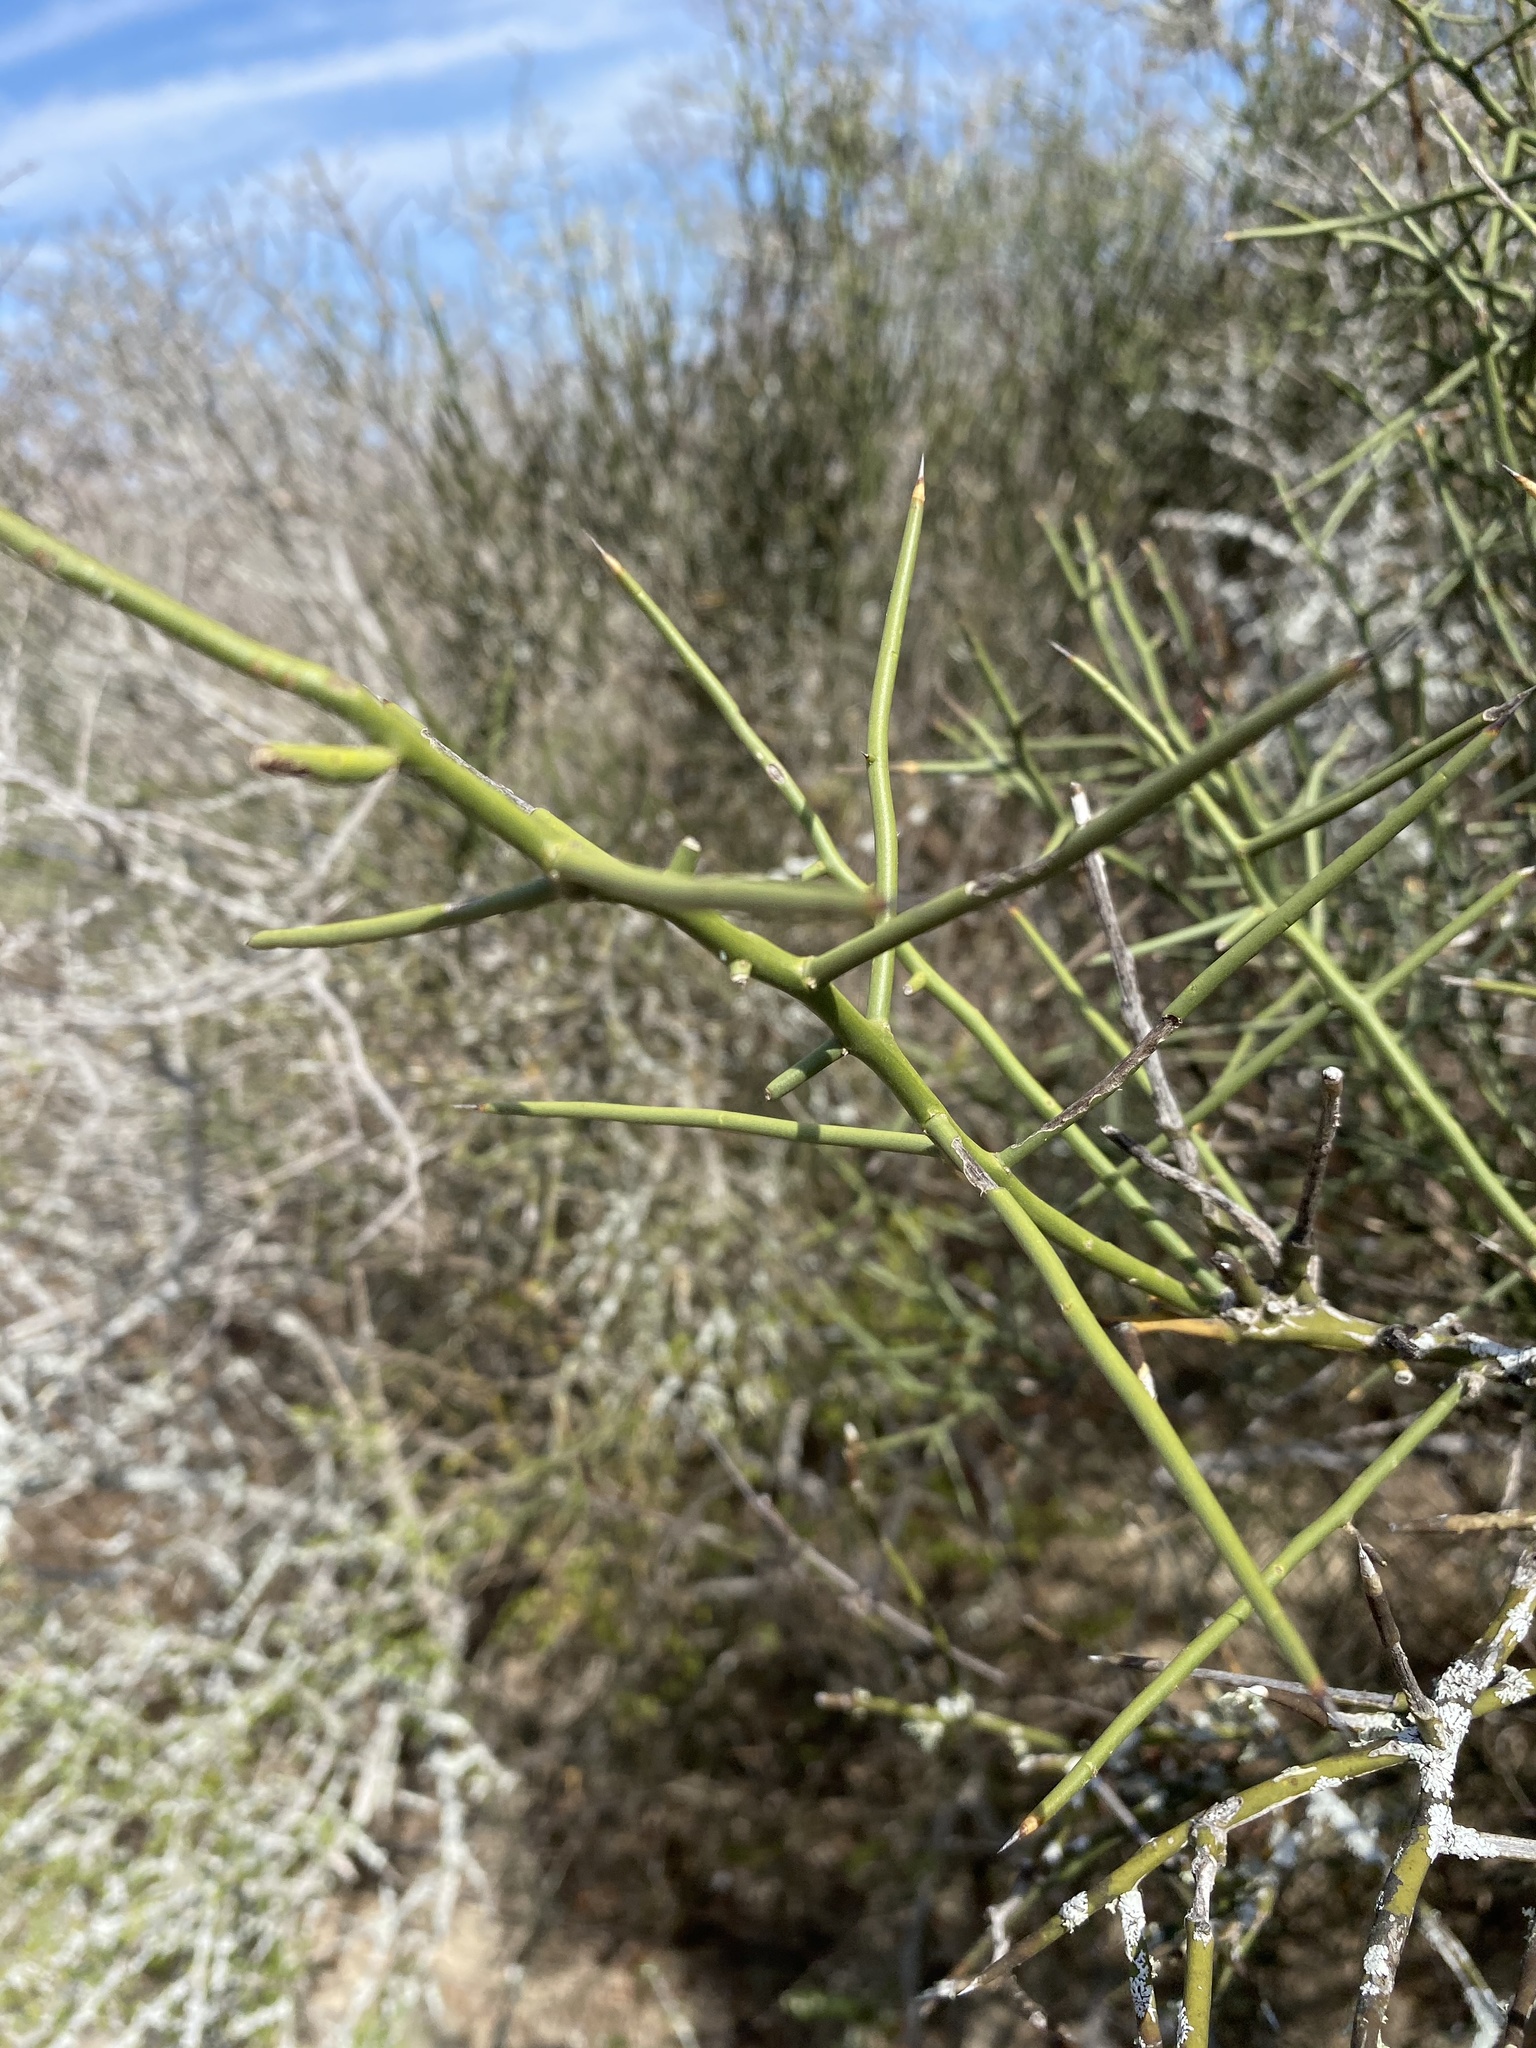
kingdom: Plantae
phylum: Tracheophyta
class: Magnoliopsida
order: Brassicales
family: Koeberliniaceae
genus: Koeberlinia
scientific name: Koeberlinia spinosa
